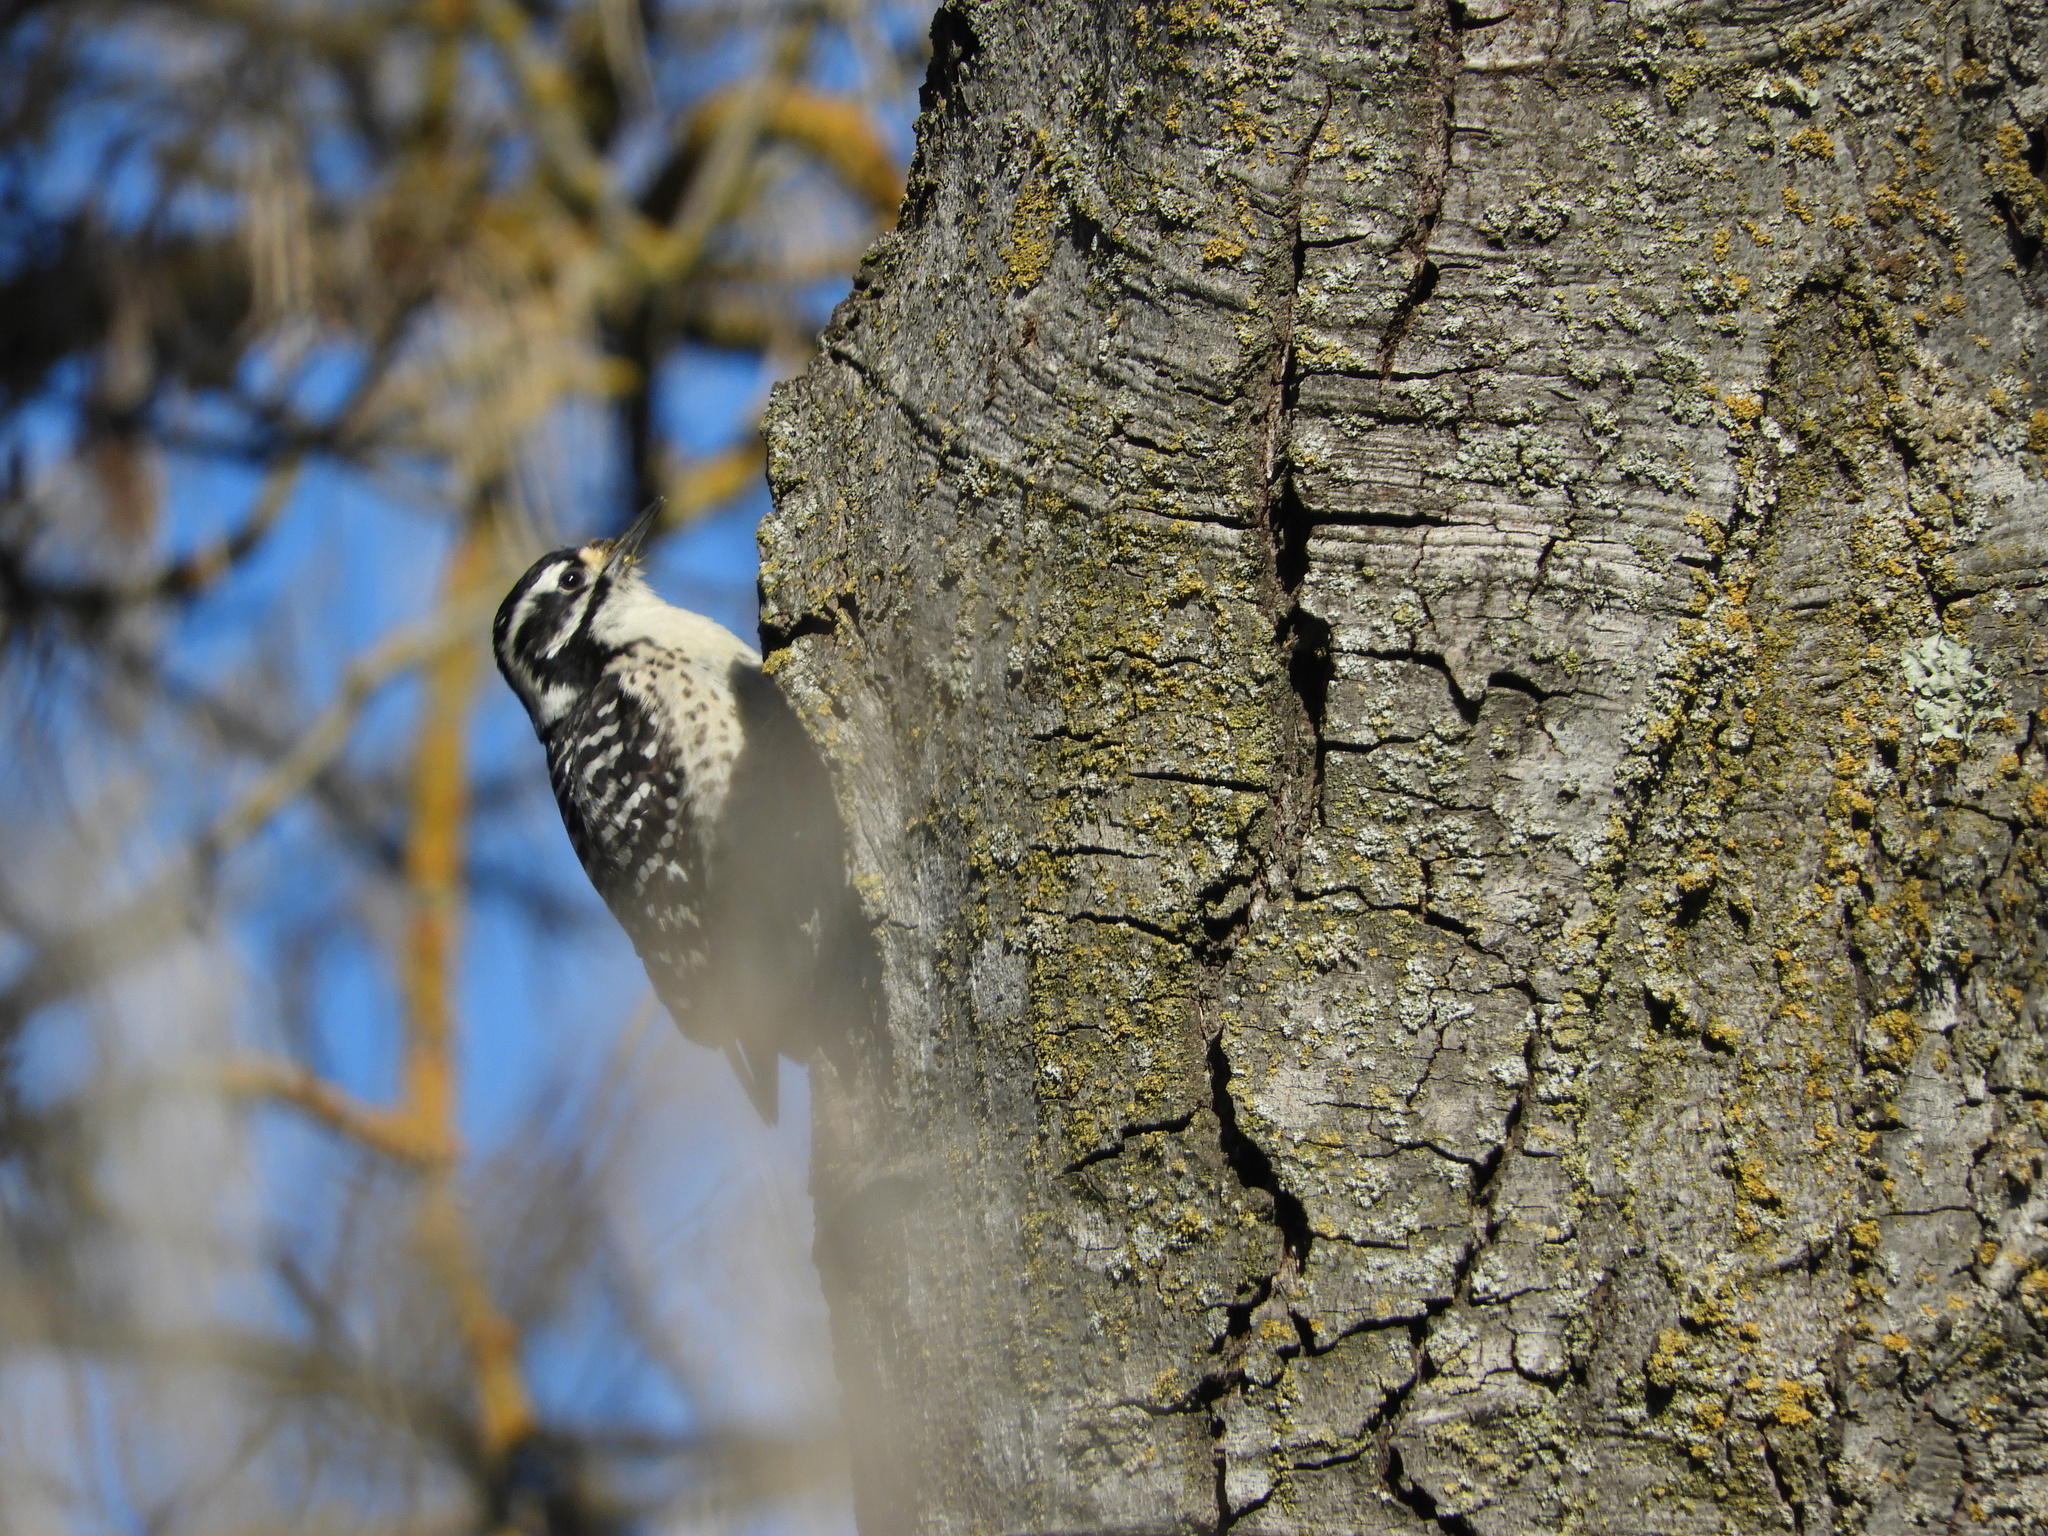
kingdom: Animalia
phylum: Chordata
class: Aves
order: Piciformes
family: Picidae
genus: Dryobates
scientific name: Dryobates nuttallii
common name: Nuttall's woodpecker
